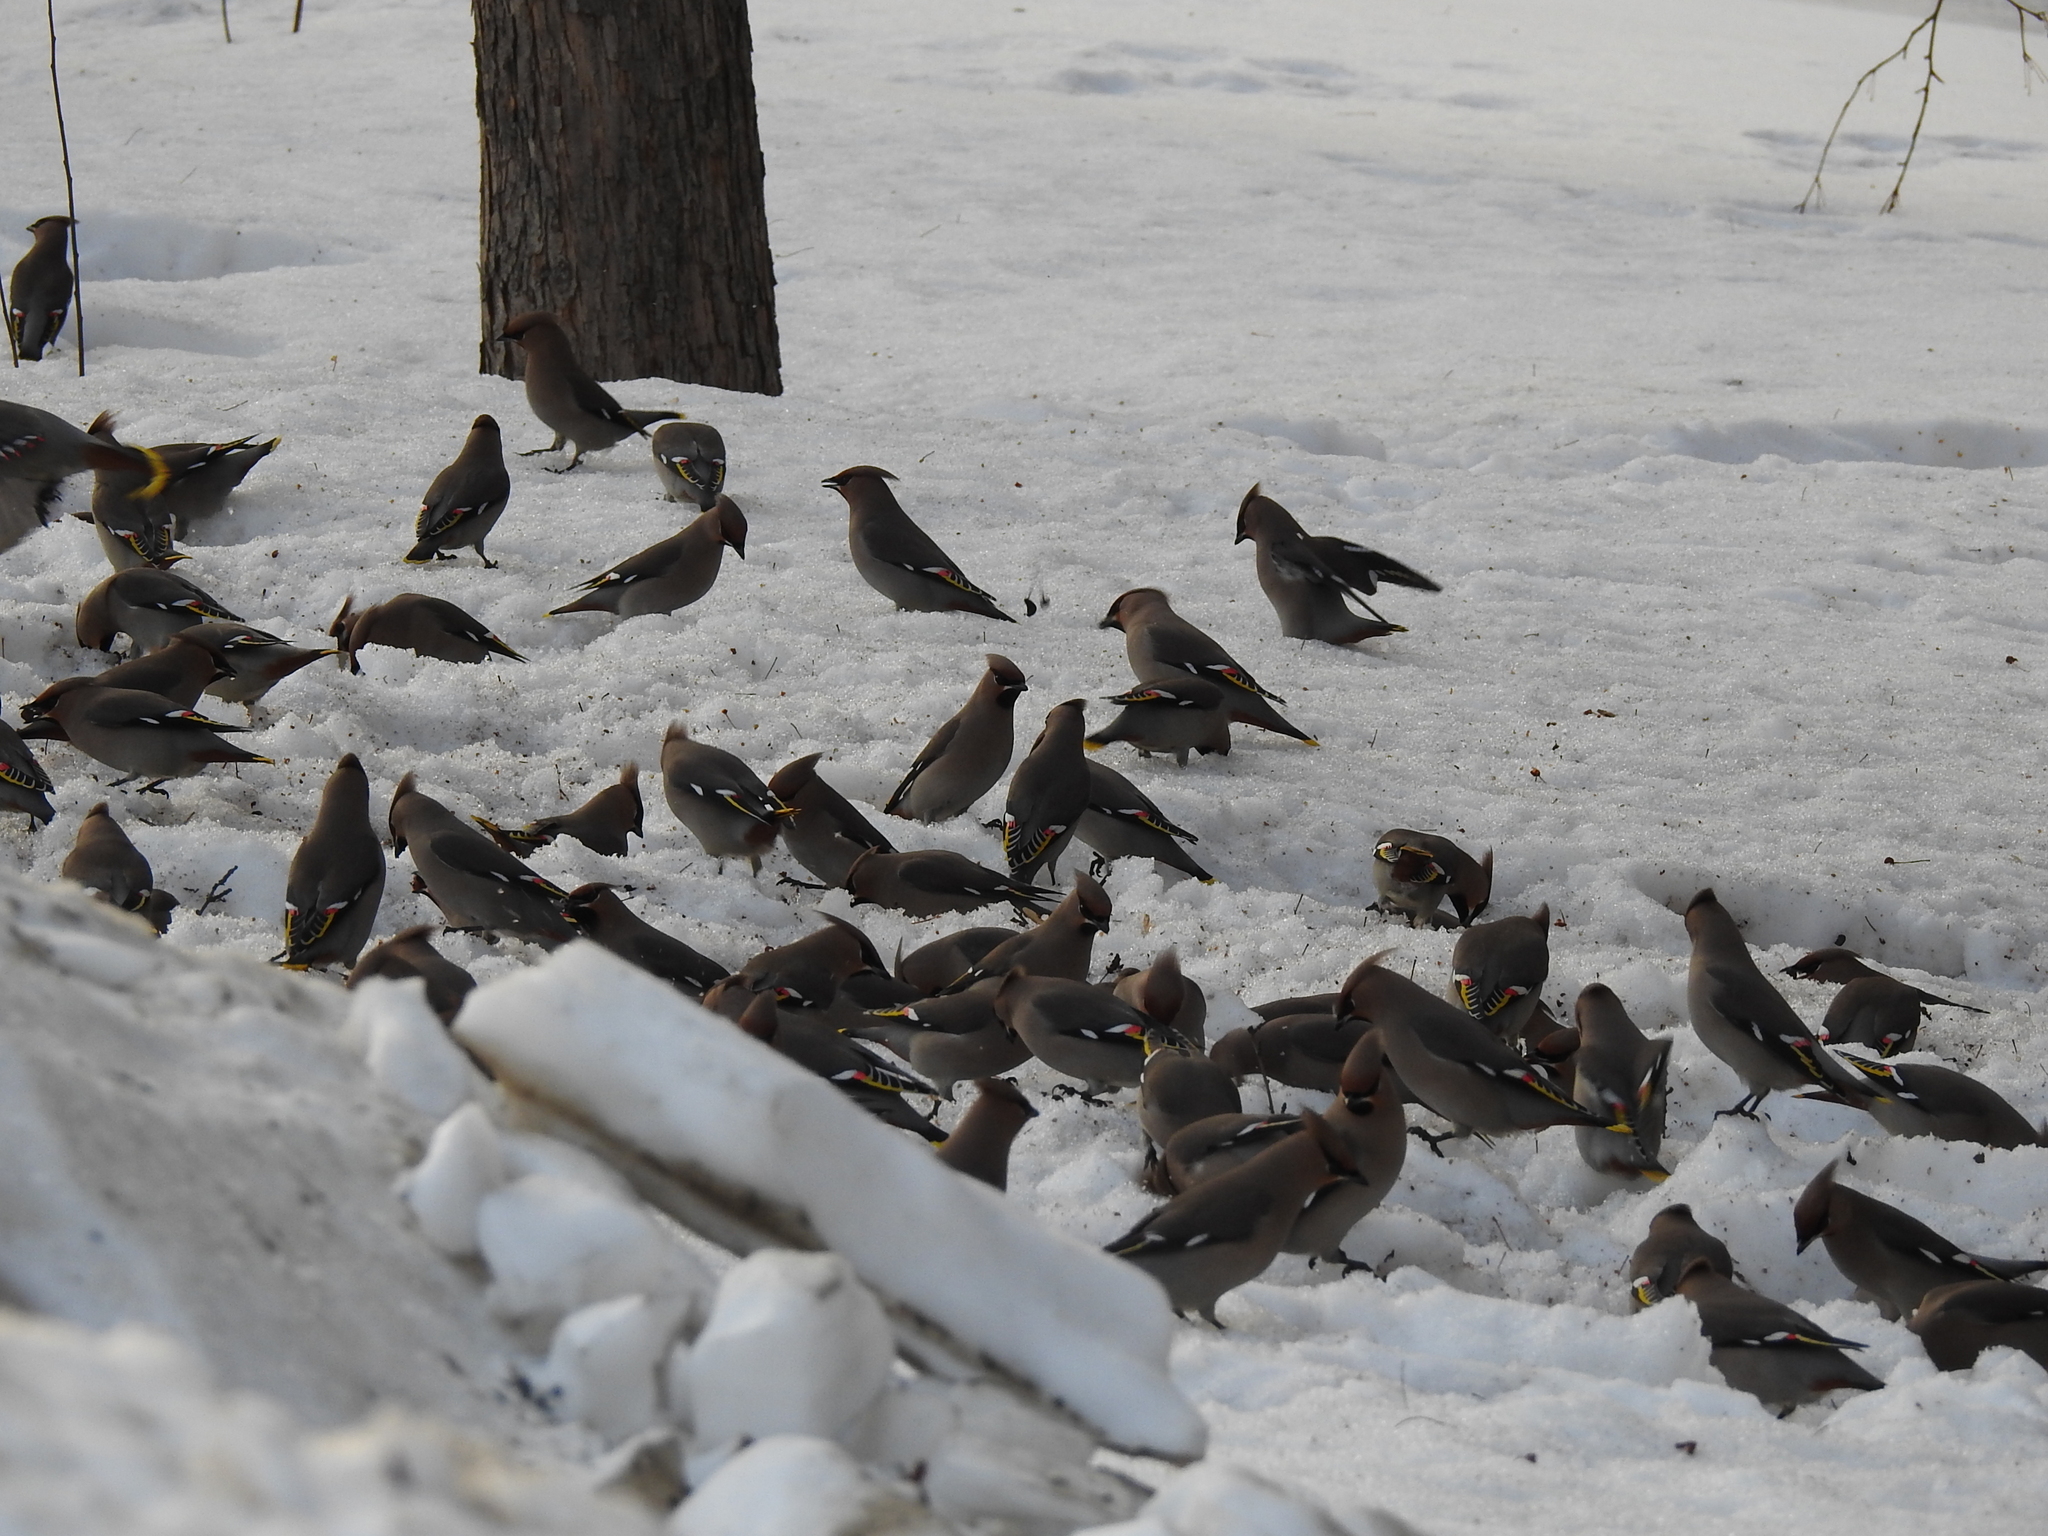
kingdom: Animalia
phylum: Chordata
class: Aves
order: Passeriformes
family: Bombycillidae
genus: Bombycilla
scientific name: Bombycilla garrulus
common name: Bohemian waxwing
